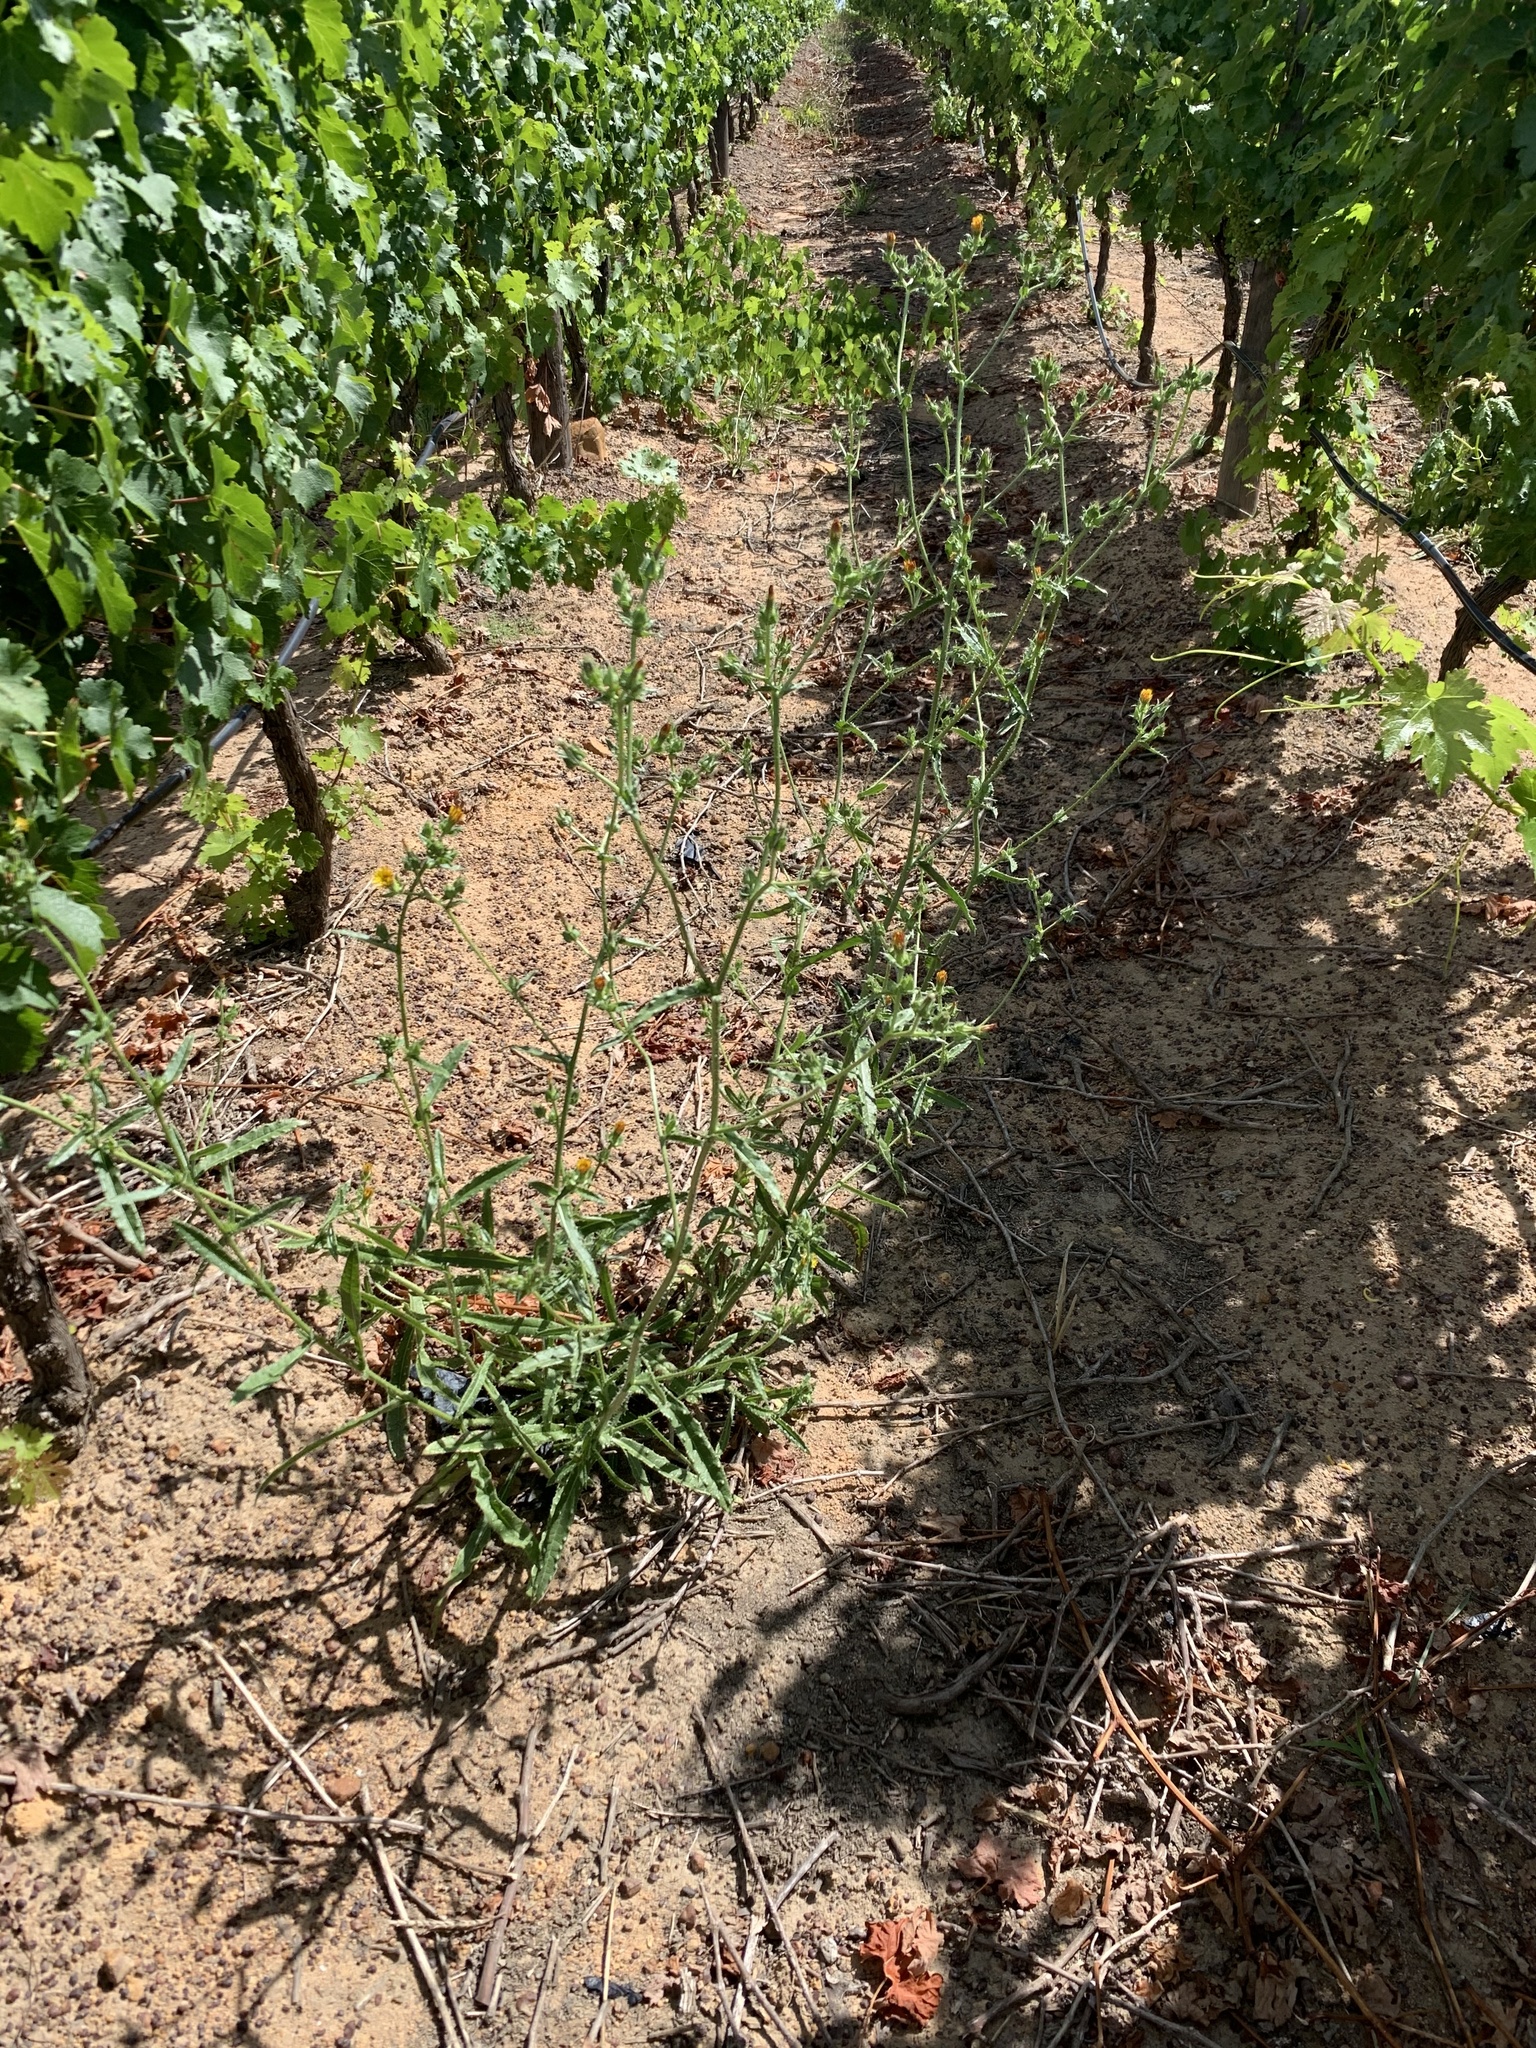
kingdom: Plantae
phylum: Tracheophyta
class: Magnoliopsida
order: Asterales
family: Asteraceae
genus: Helminthotheca
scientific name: Helminthotheca echioides
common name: Ox-tongue
